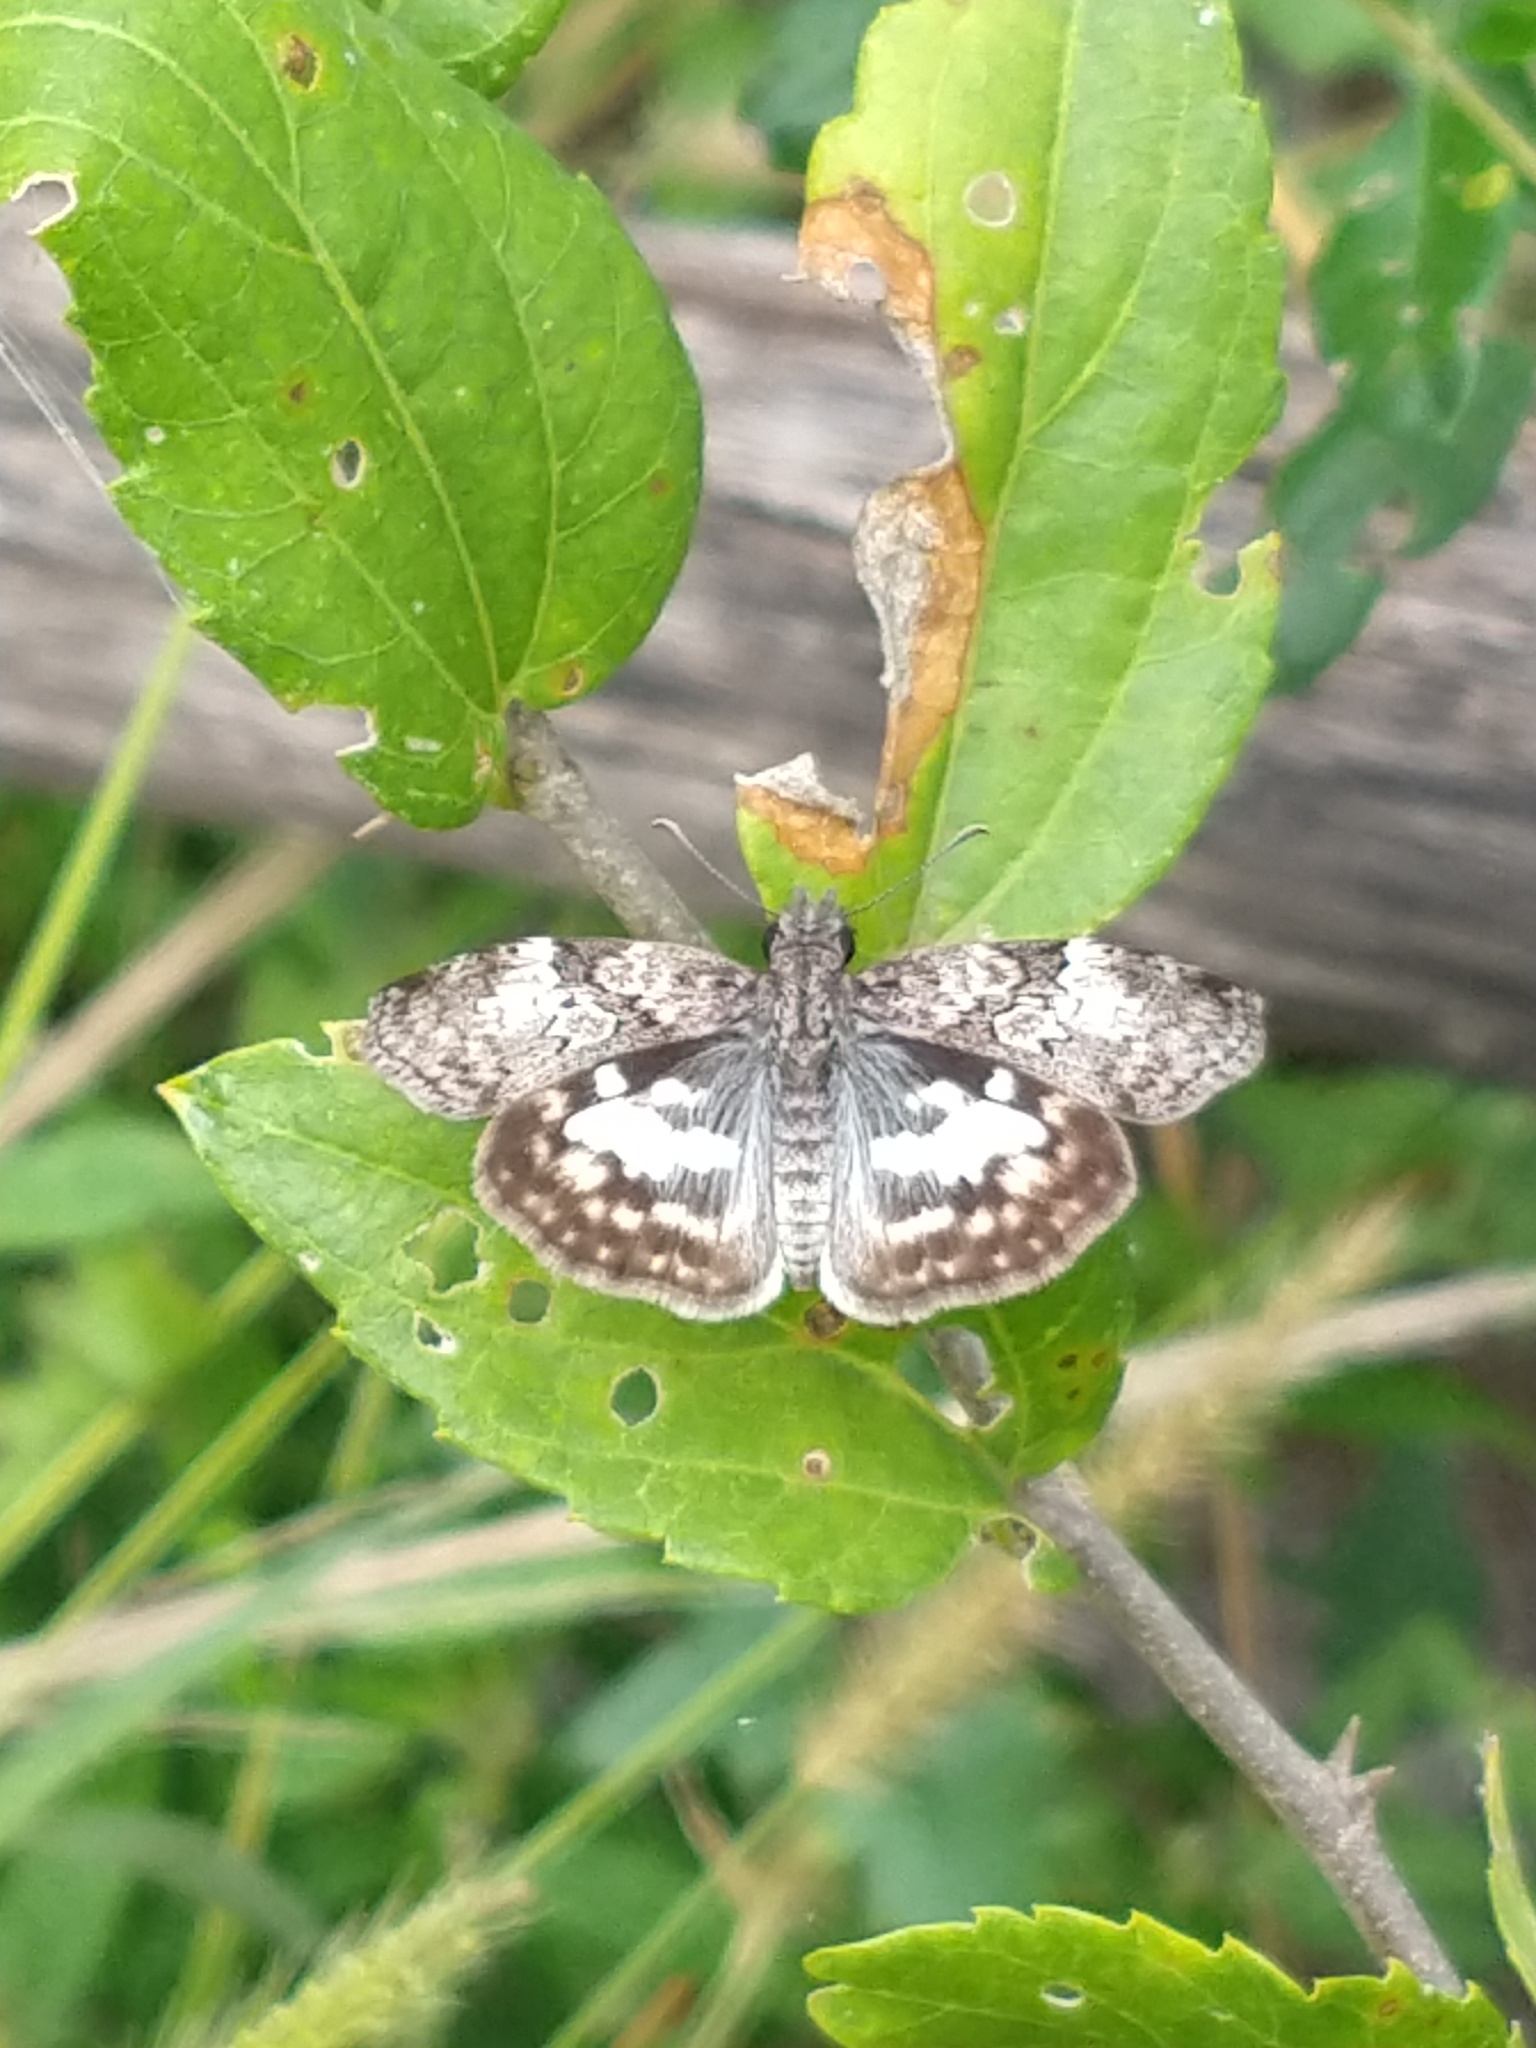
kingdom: Animalia
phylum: Arthropoda
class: Insecta
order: Lepidoptera
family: Hesperiidae
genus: Chiomara
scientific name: Chiomara asychis
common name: White-patterned skipper
